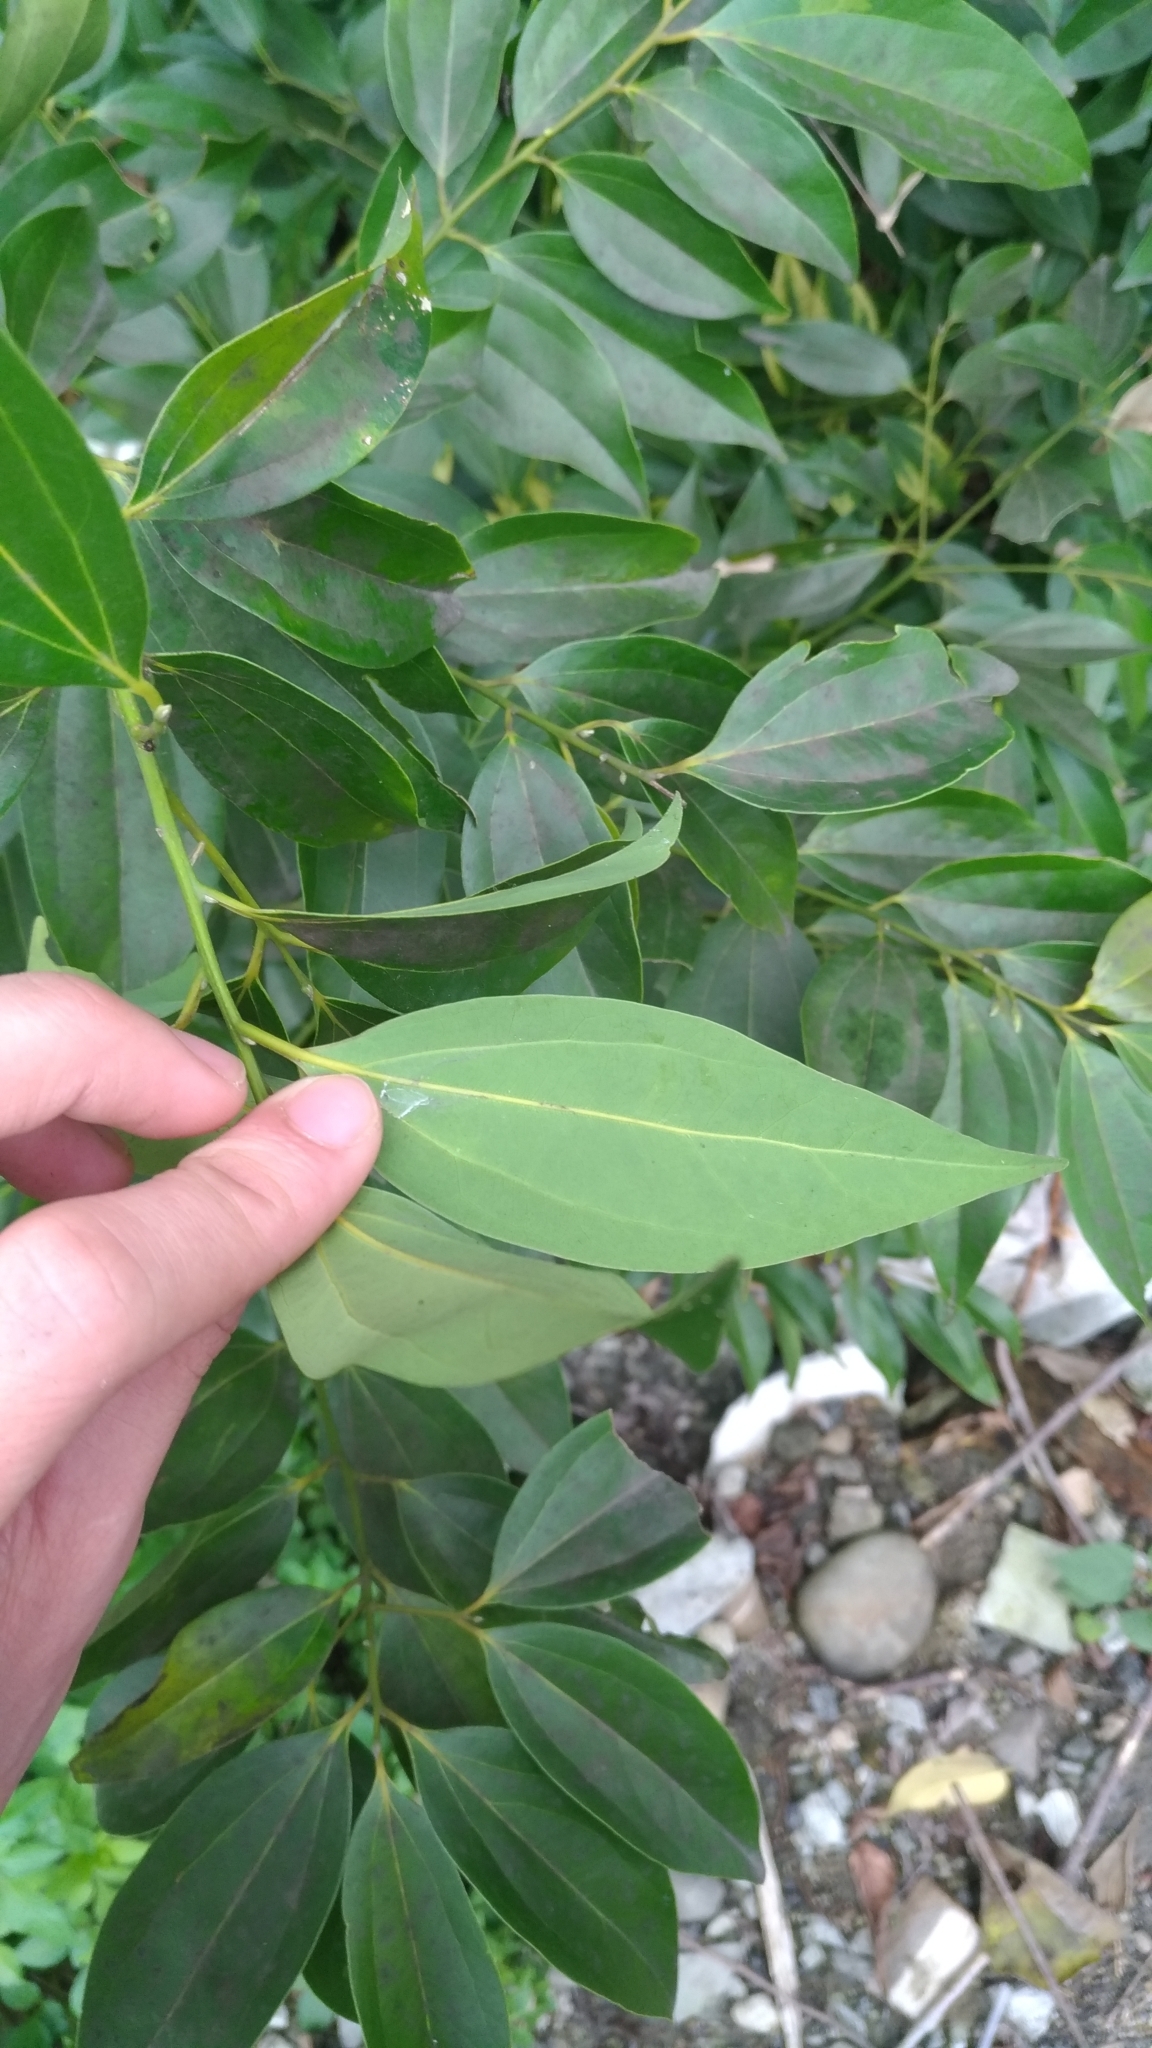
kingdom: Plantae
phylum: Tracheophyta
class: Magnoliopsida
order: Laurales
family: Lauraceae
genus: Cinnamomum
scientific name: Cinnamomum osmophloeum
